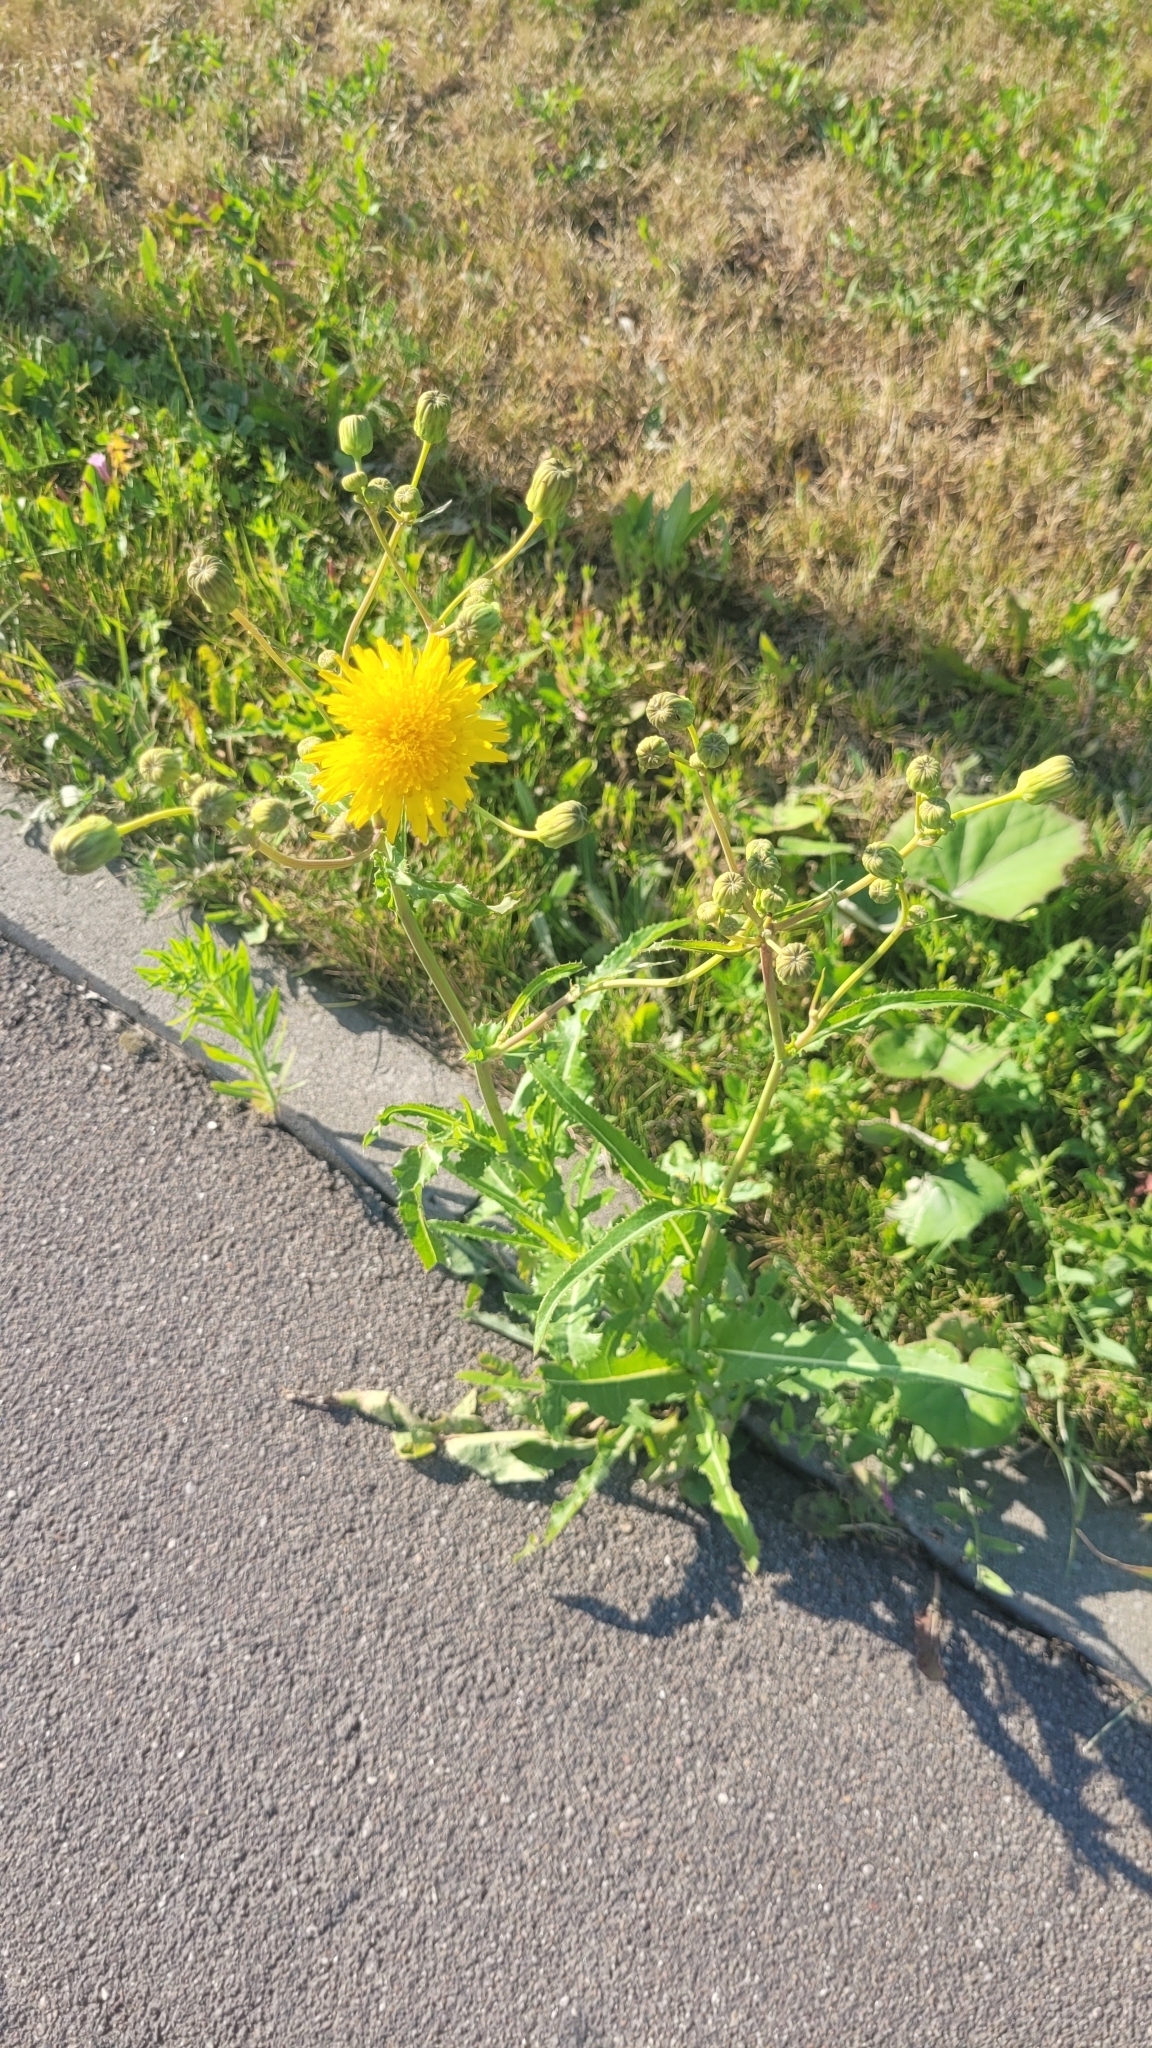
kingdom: Plantae
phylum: Tracheophyta
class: Magnoliopsida
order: Asterales
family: Asteraceae
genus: Sonchus
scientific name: Sonchus arvensis
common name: Perennial sow-thistle
